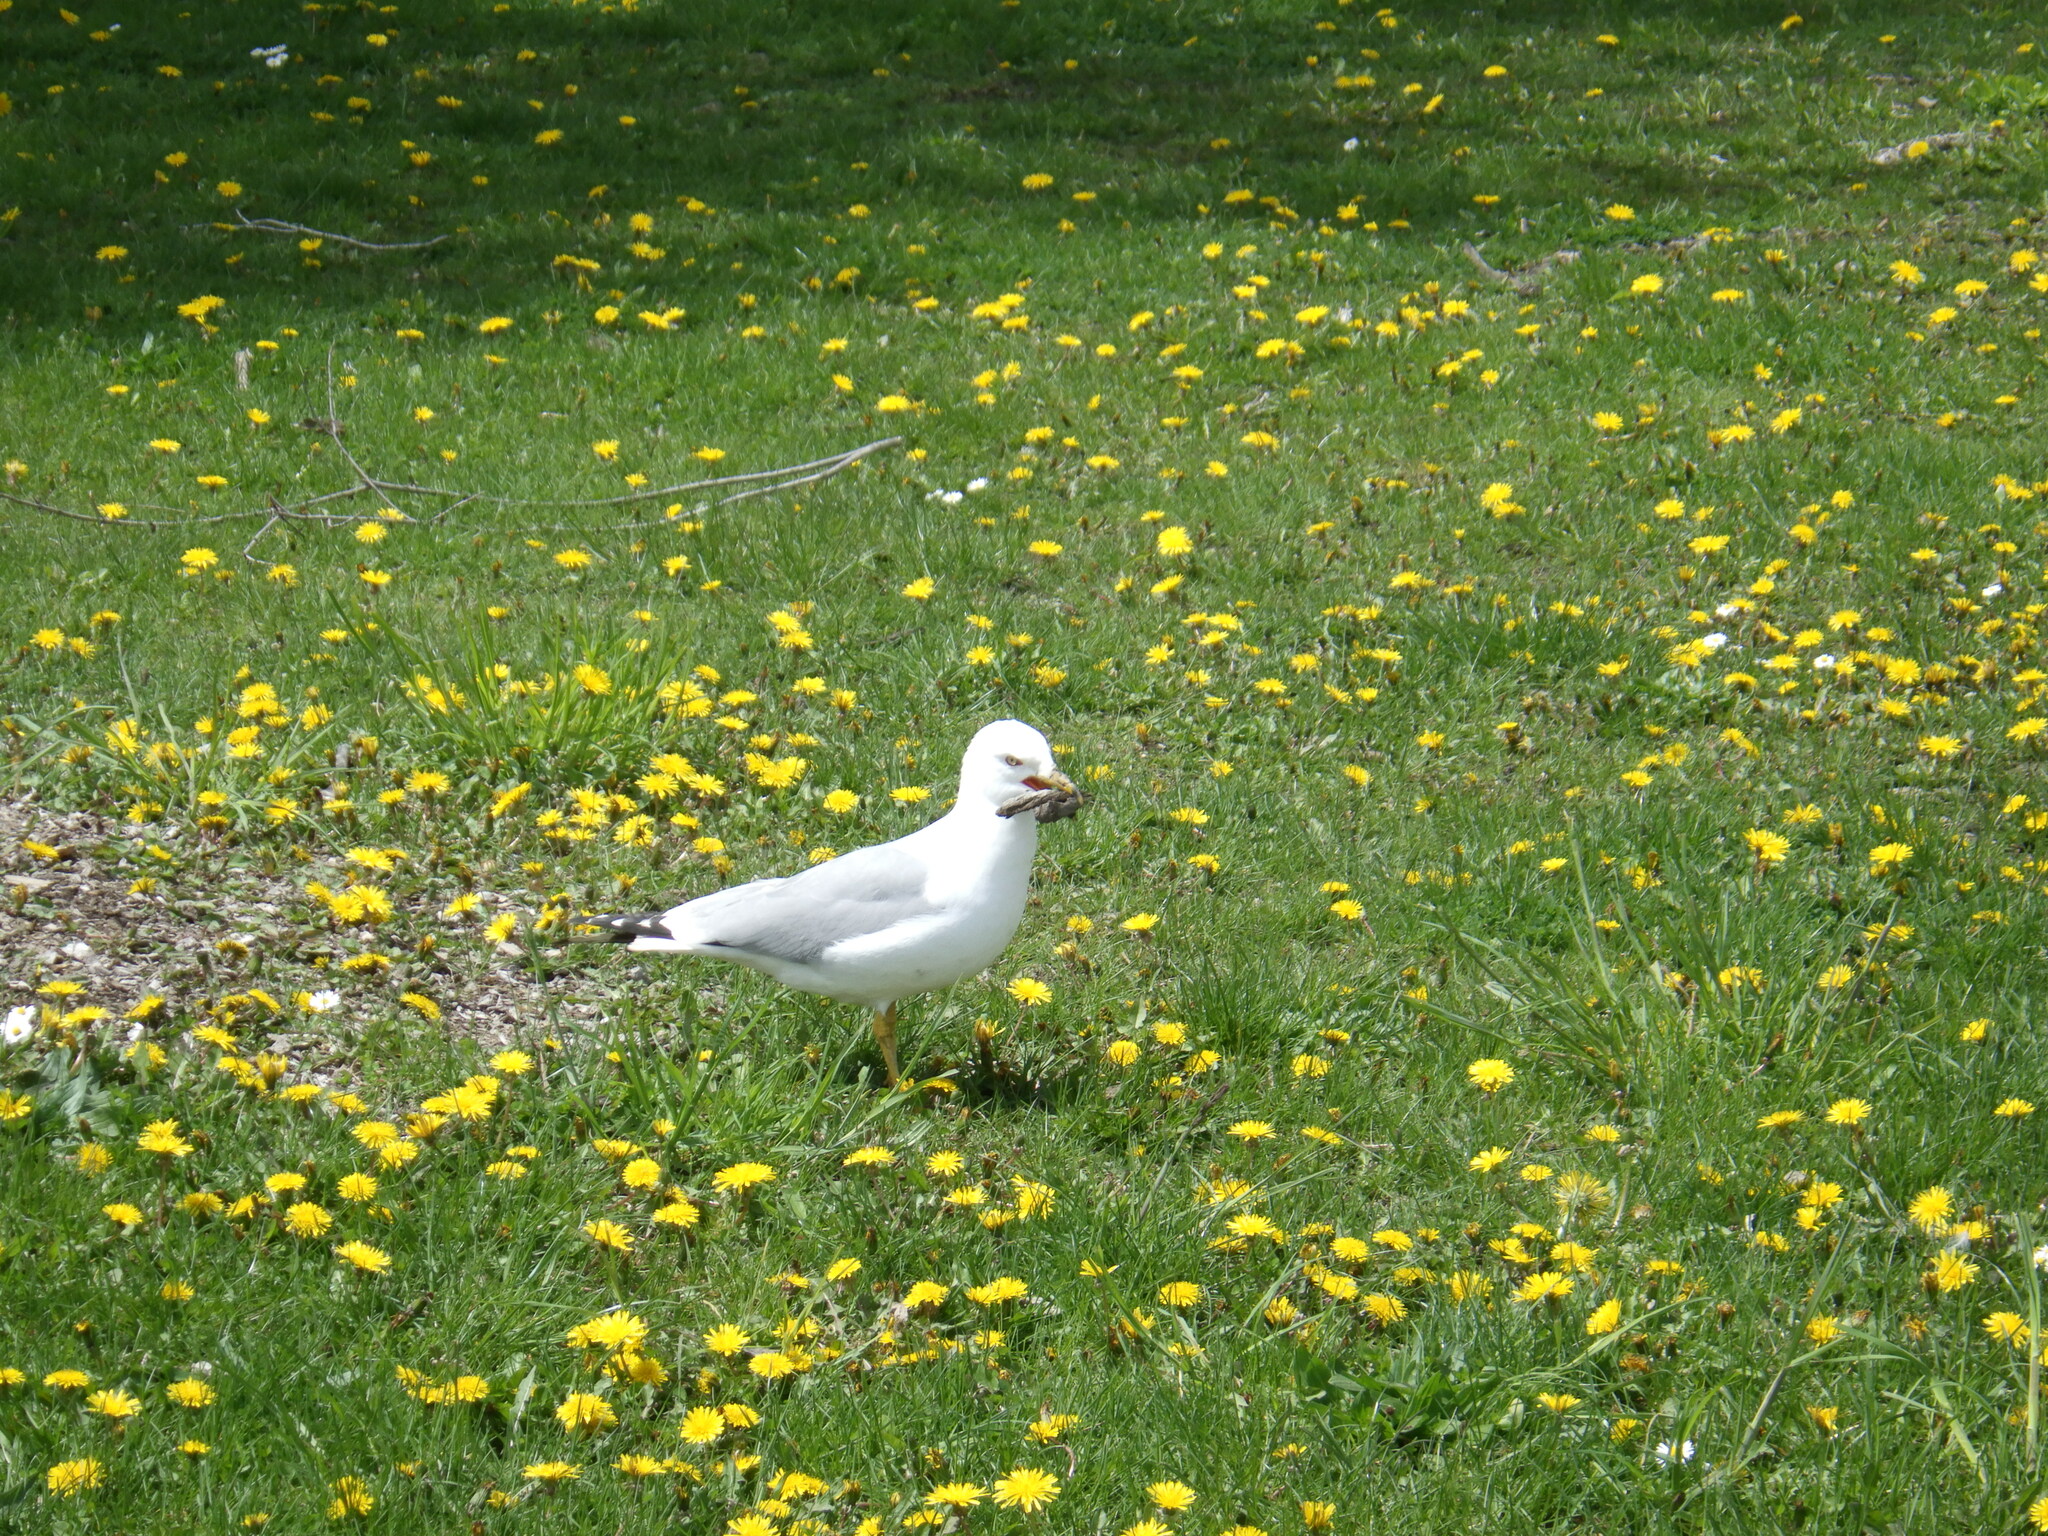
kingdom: Animalia
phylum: Chordata
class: Aves
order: Charadriiformes
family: Laridae
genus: Larus
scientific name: Larus delawarensis
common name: Ring-billed gull
